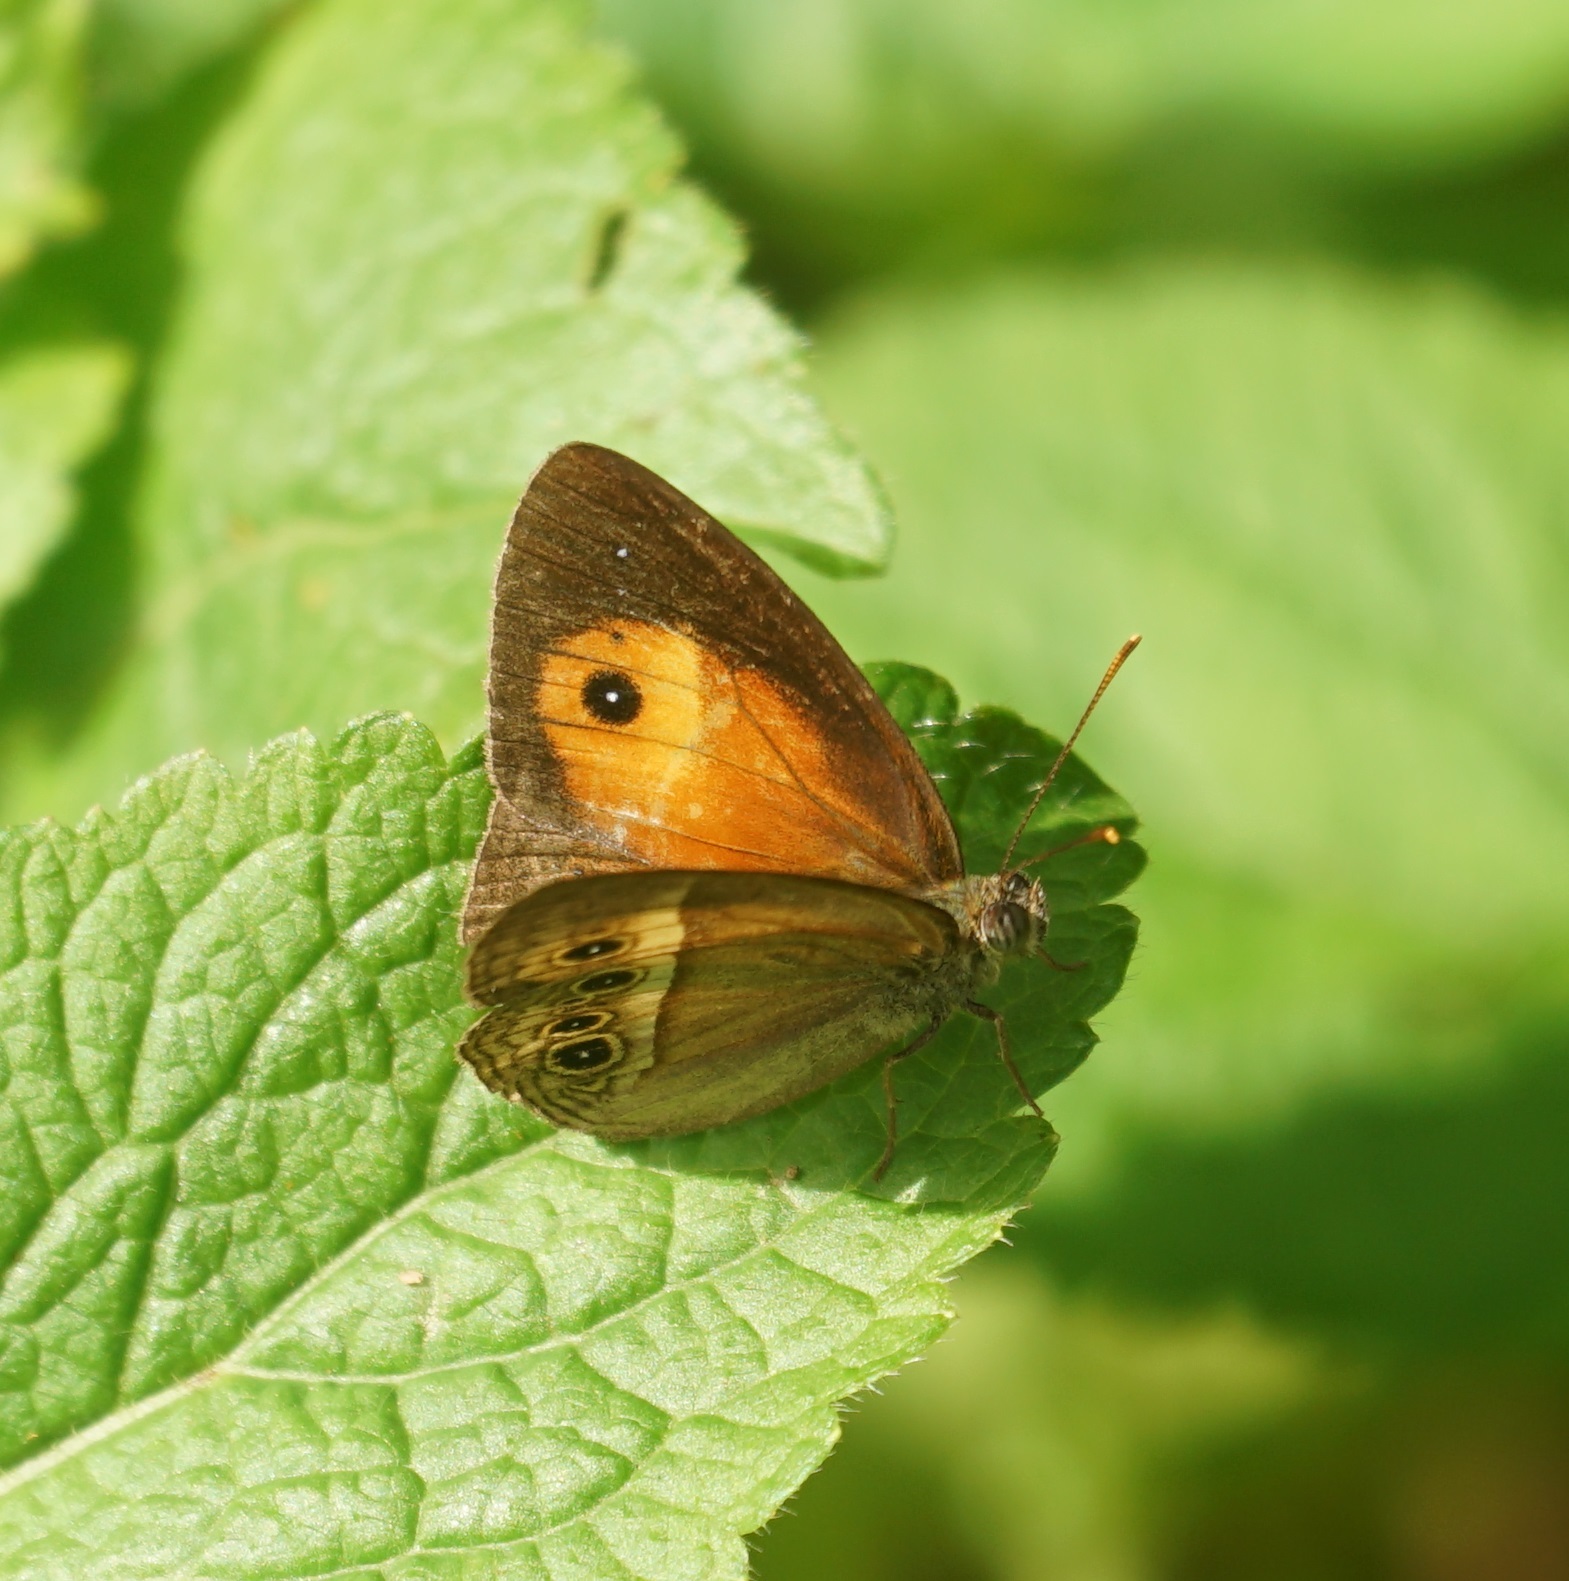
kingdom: Animalia
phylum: Arthropoda
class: Insecta
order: Lepidoptera
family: Nymphalidae
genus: Mycalesis
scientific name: Mycalesis terminus
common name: Orange bushbrown
